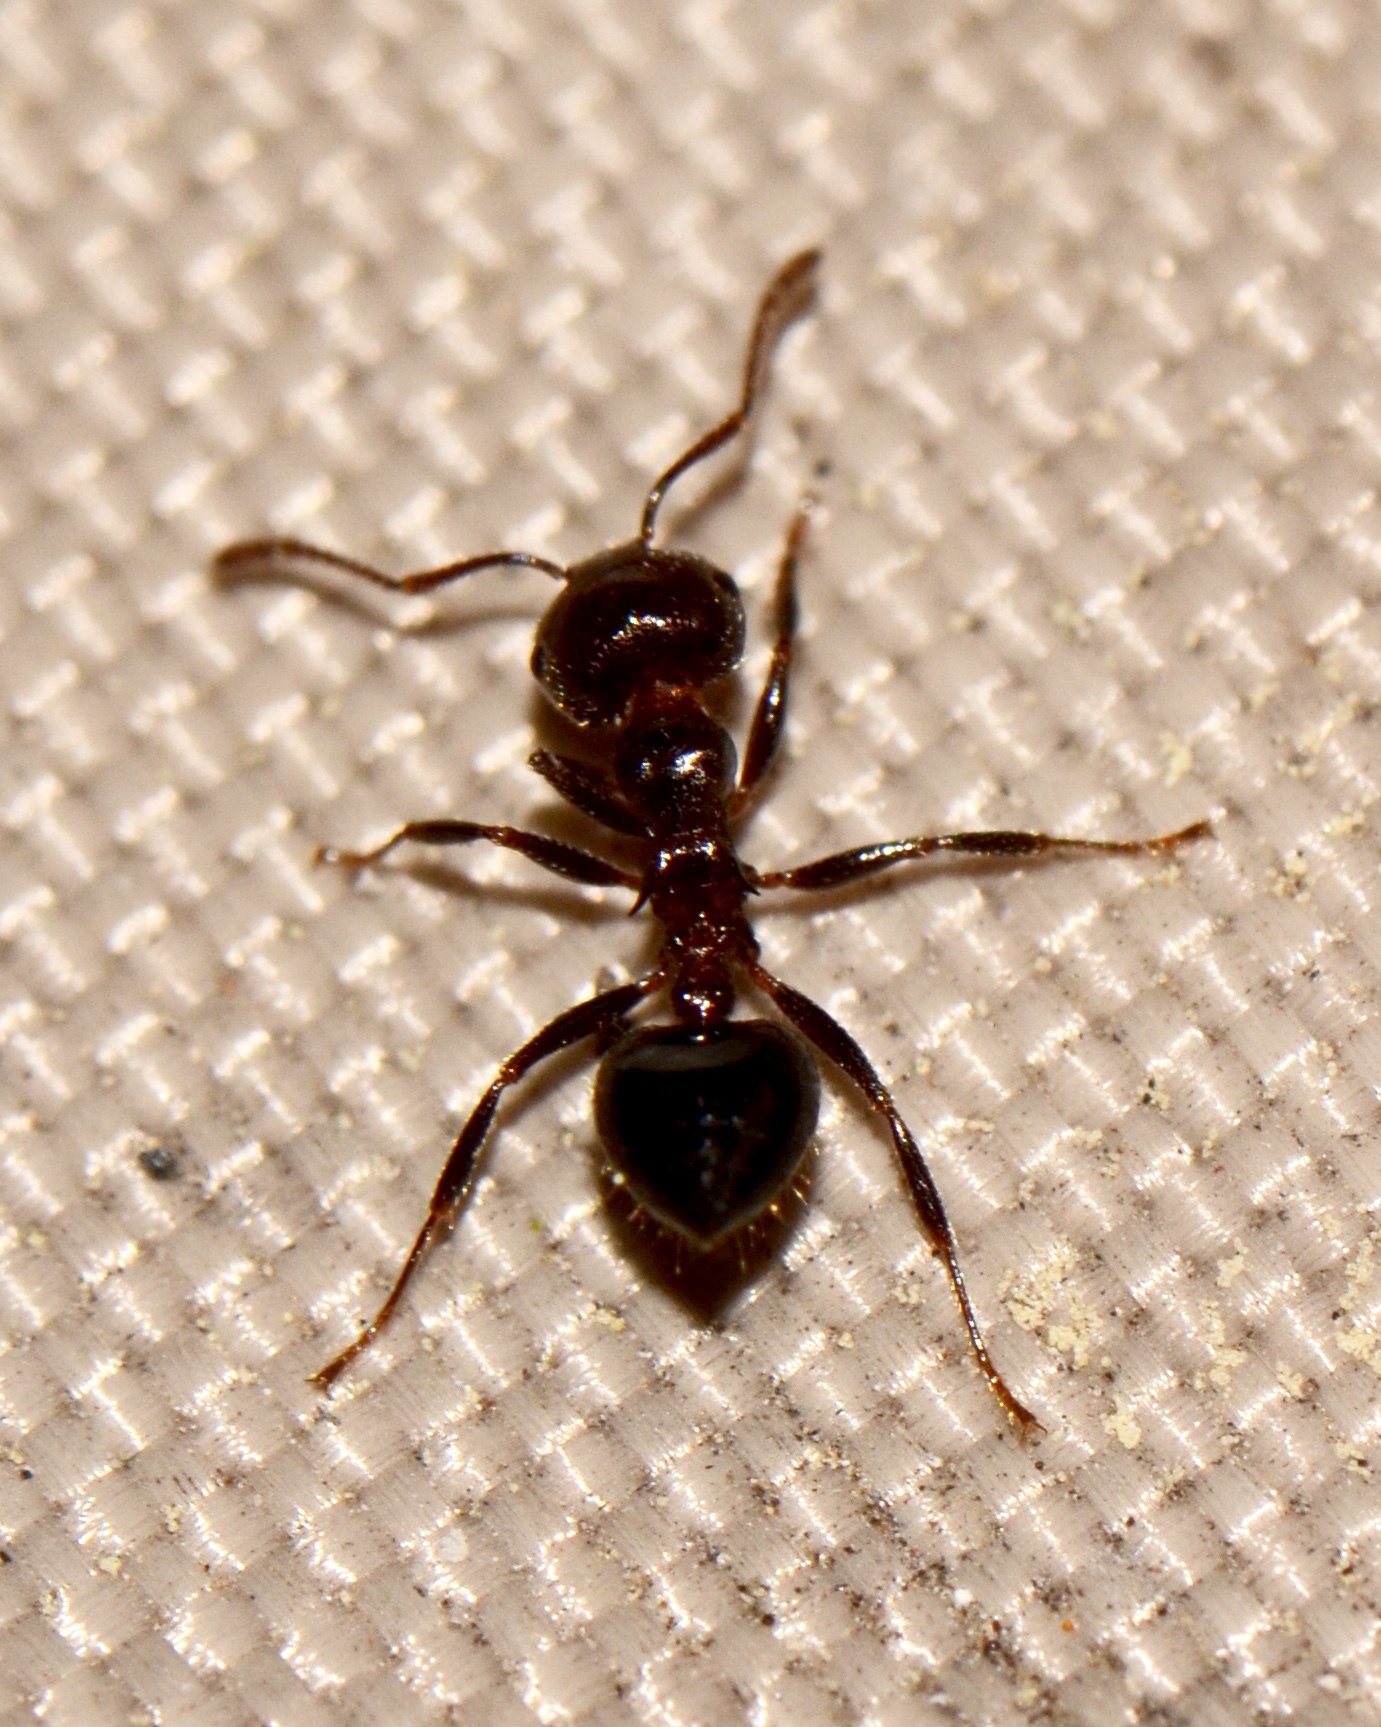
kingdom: Animalia
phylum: Arthropoda
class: Insecta
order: Hymenoptera
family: Formicidae
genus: Crematogaster
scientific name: Crematogaster laeviuscula
